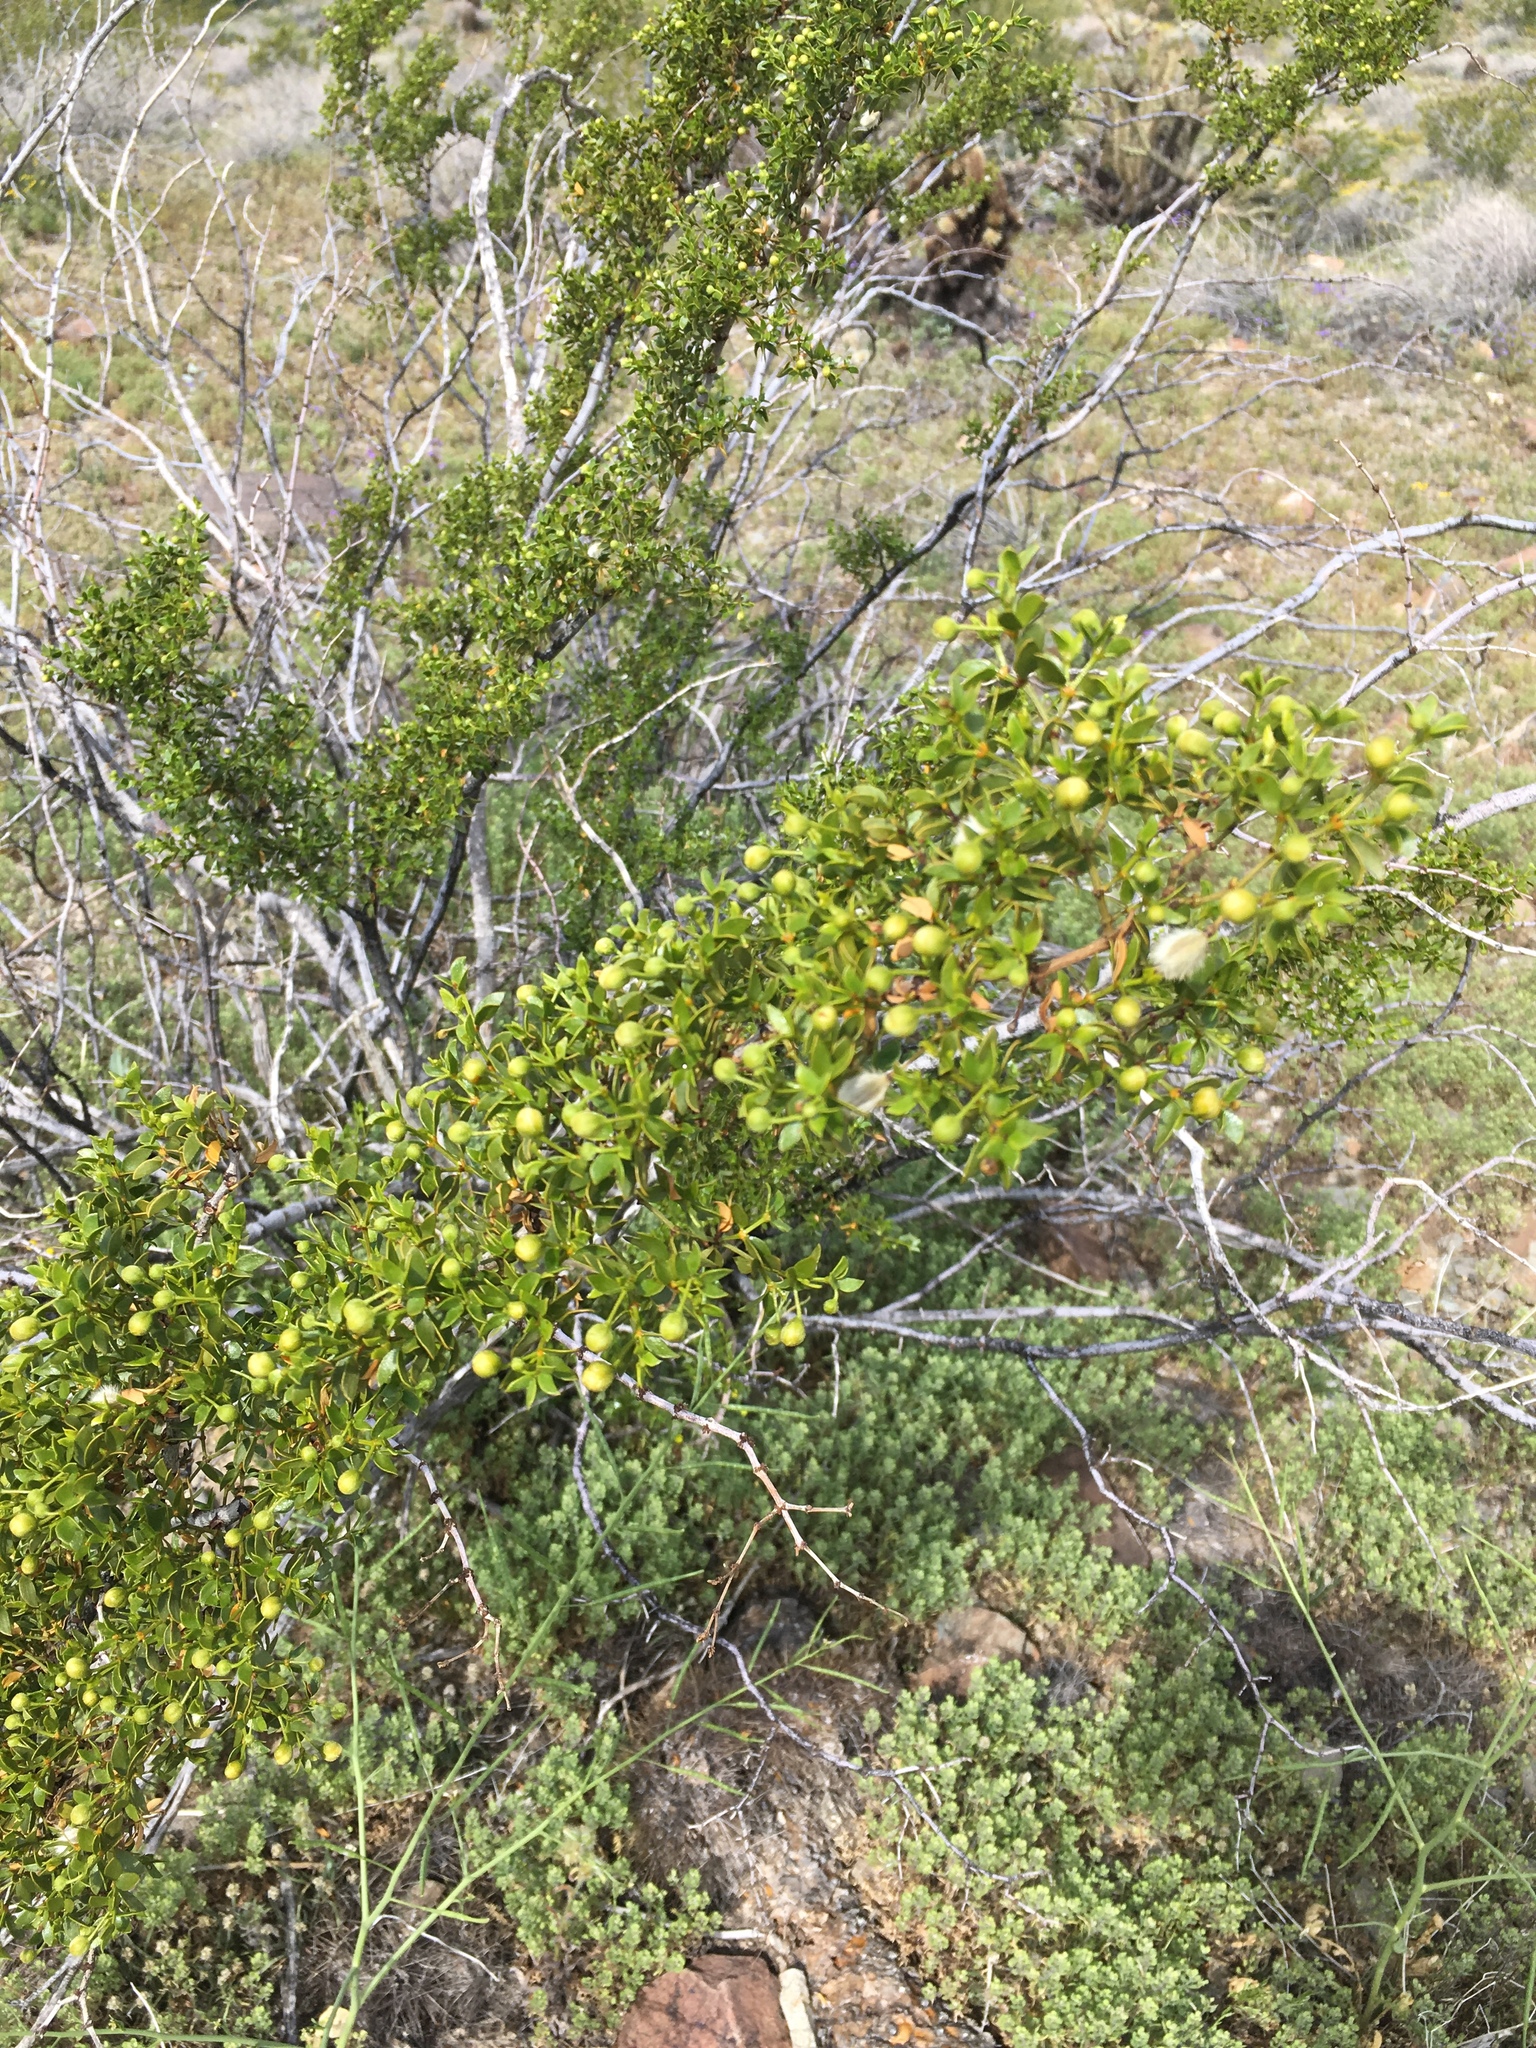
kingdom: Plantae
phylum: Tracheophyta
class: Magnoliopsida
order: Zygophyllales
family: Zygophyllaceae
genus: Larrea
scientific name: Larrea tridentata
